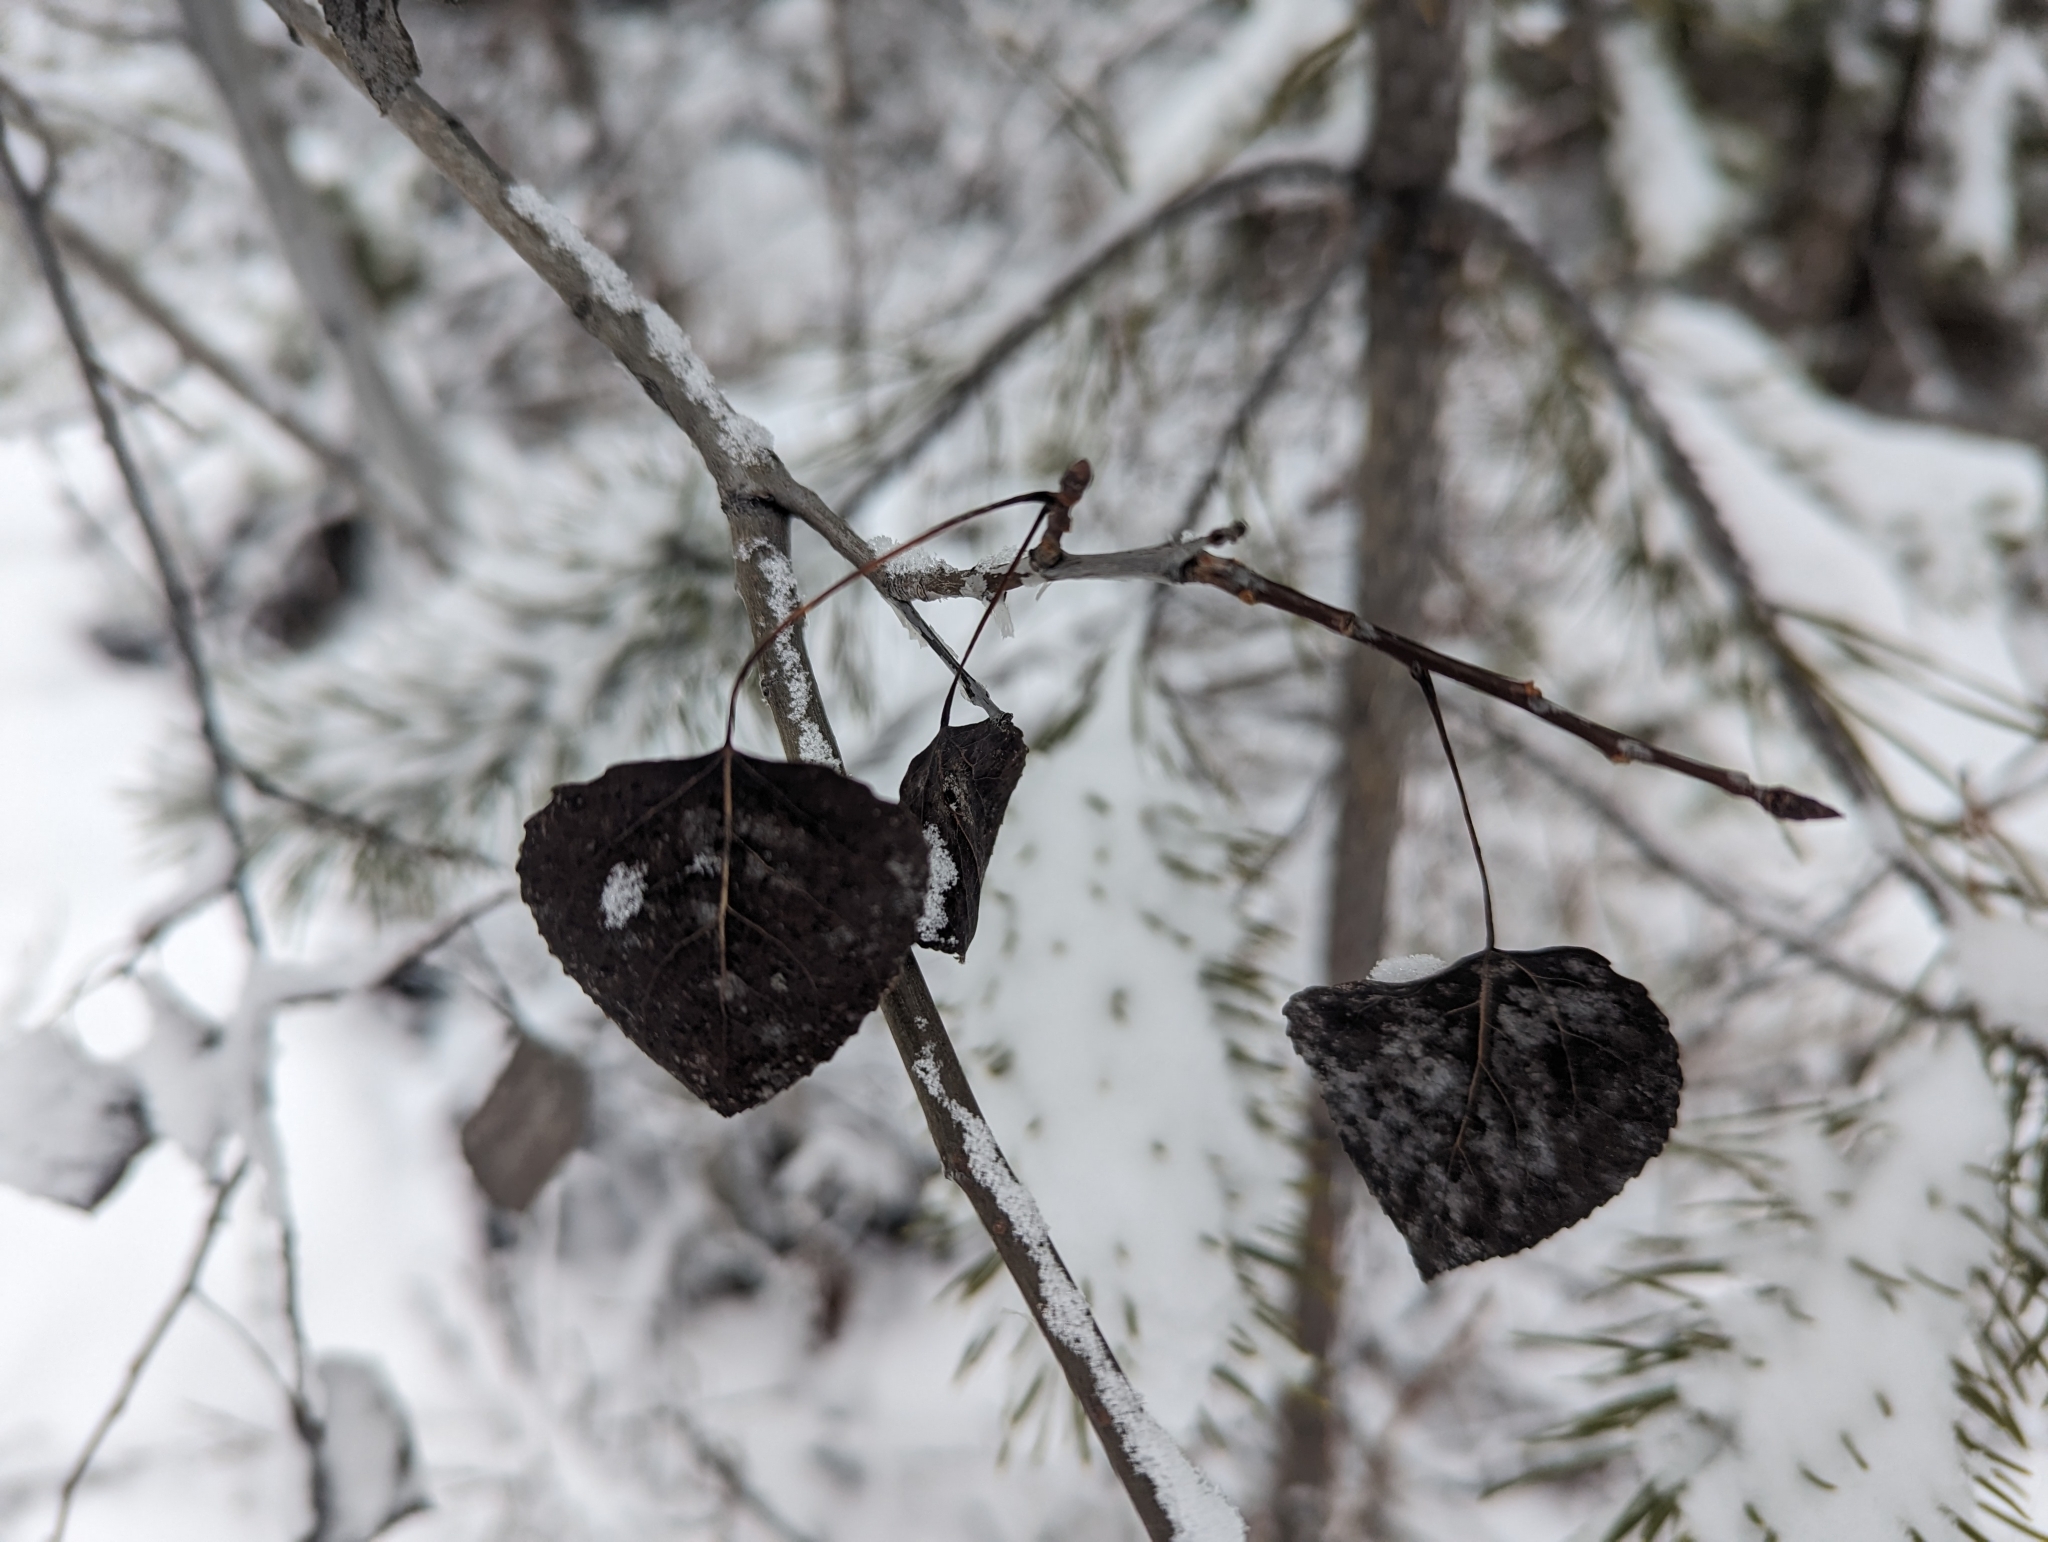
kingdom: Plantae
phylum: Tracheophyta
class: Magnoliopsida
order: Malpighiales
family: Salicaceae
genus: Populus
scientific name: Populus tremuloides
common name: Quaking aspen
